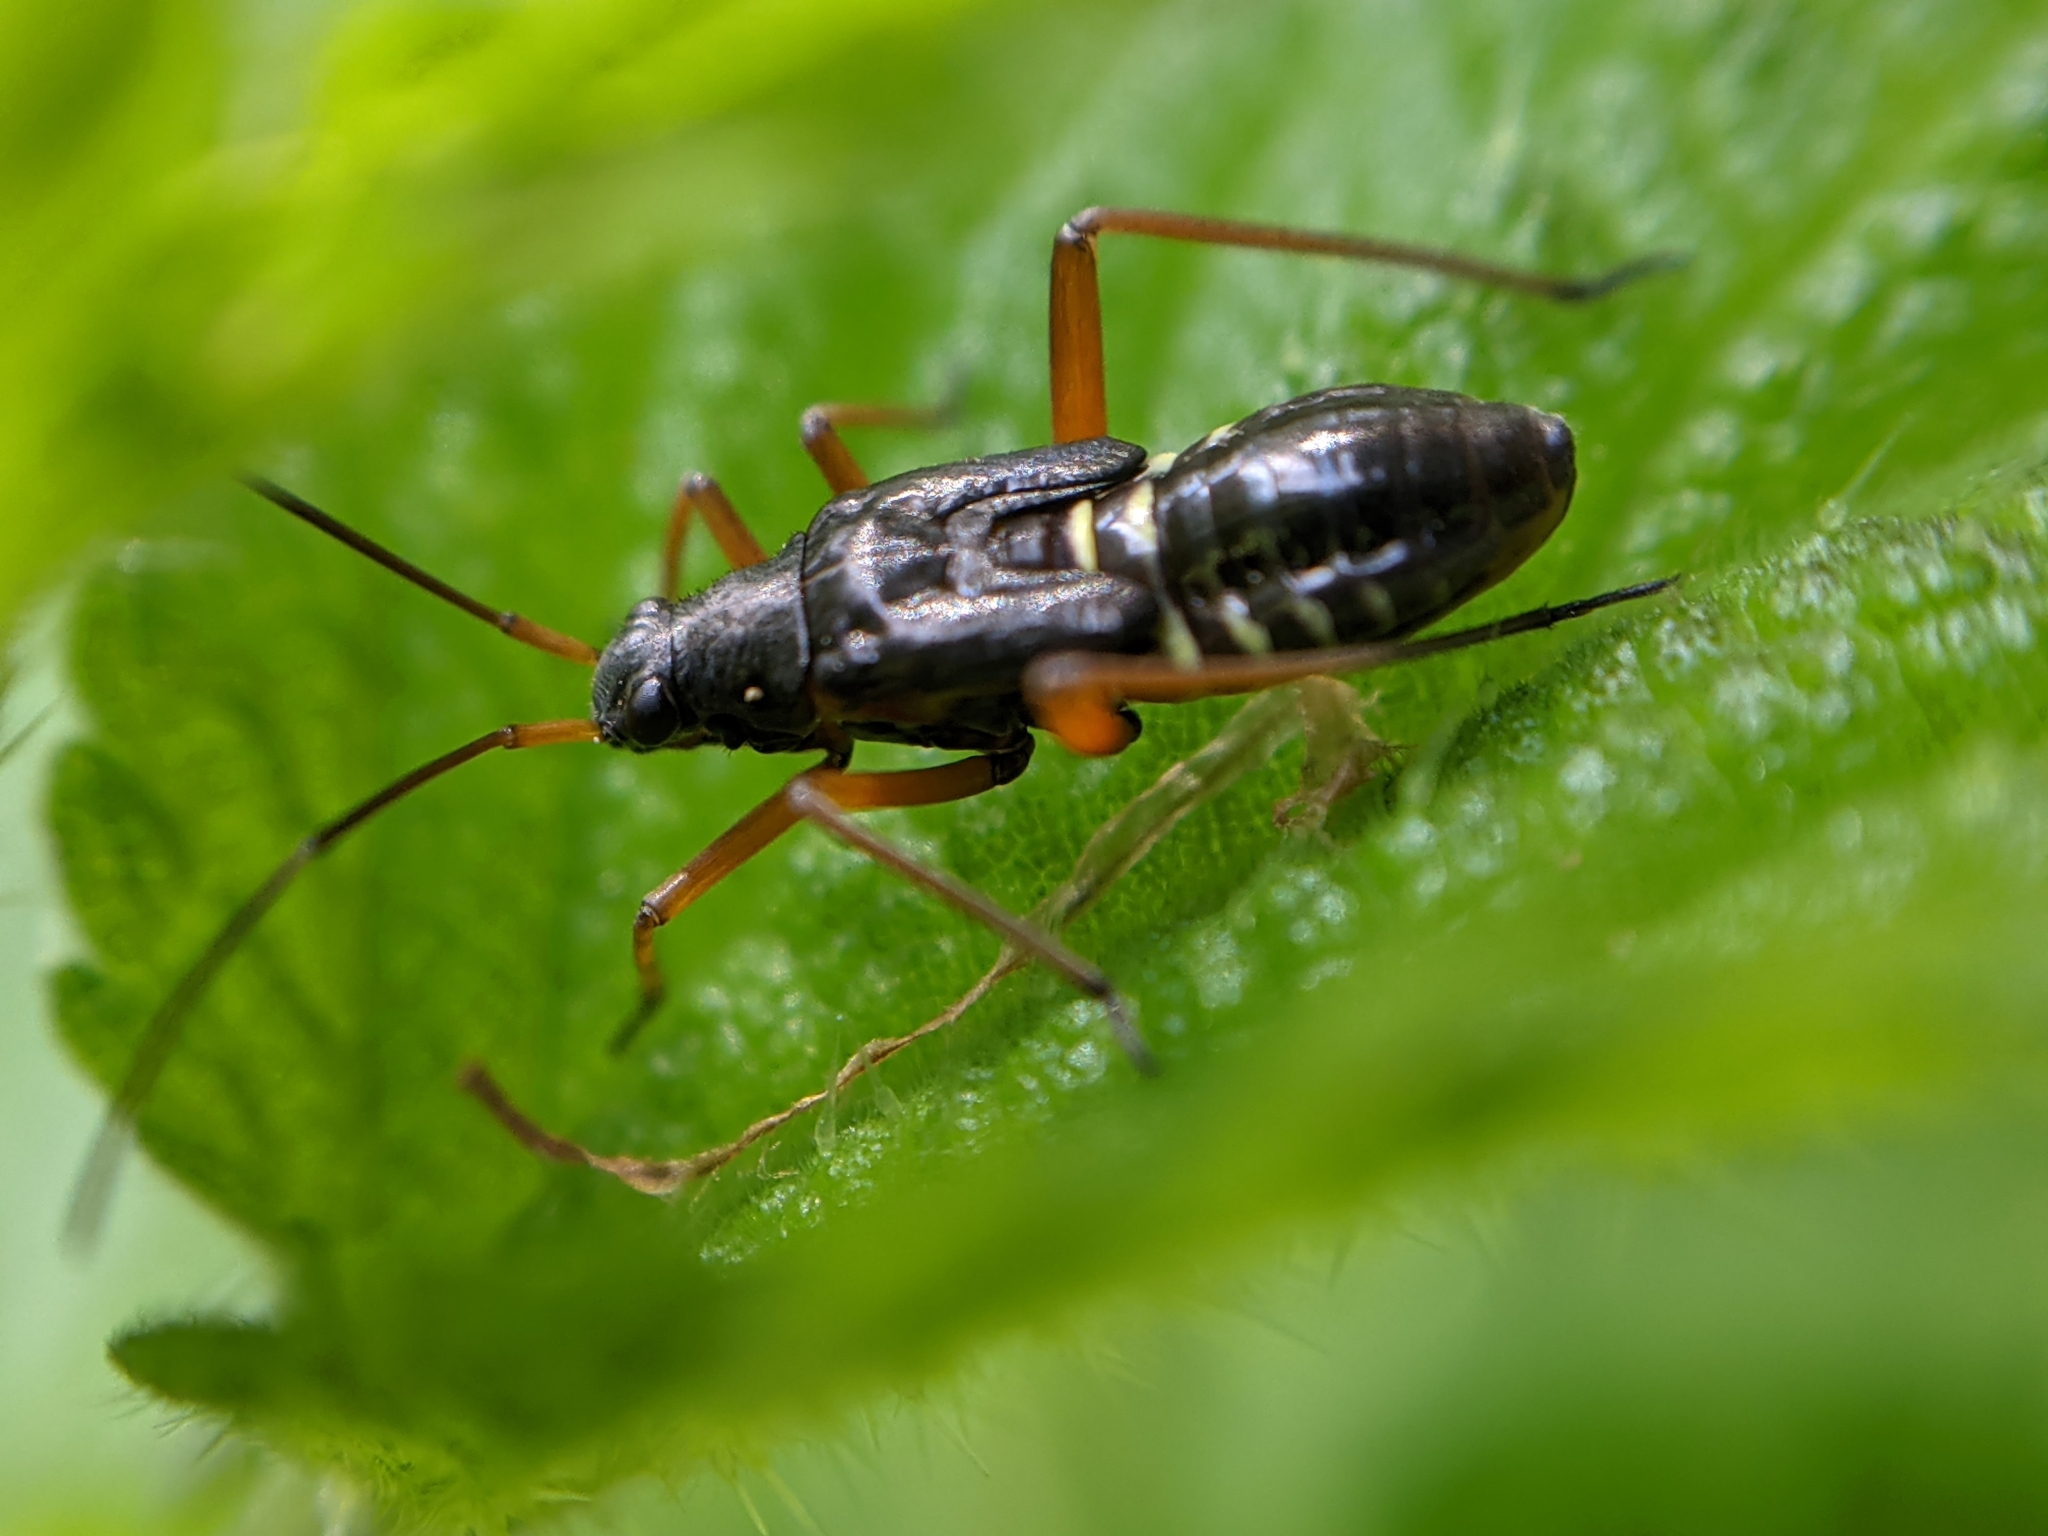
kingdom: Animalia
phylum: Arthropoda
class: Insecta
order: Hemiptera
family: Miridae
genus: Miris
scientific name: Miris striatus
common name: Fine streaked bugkin
